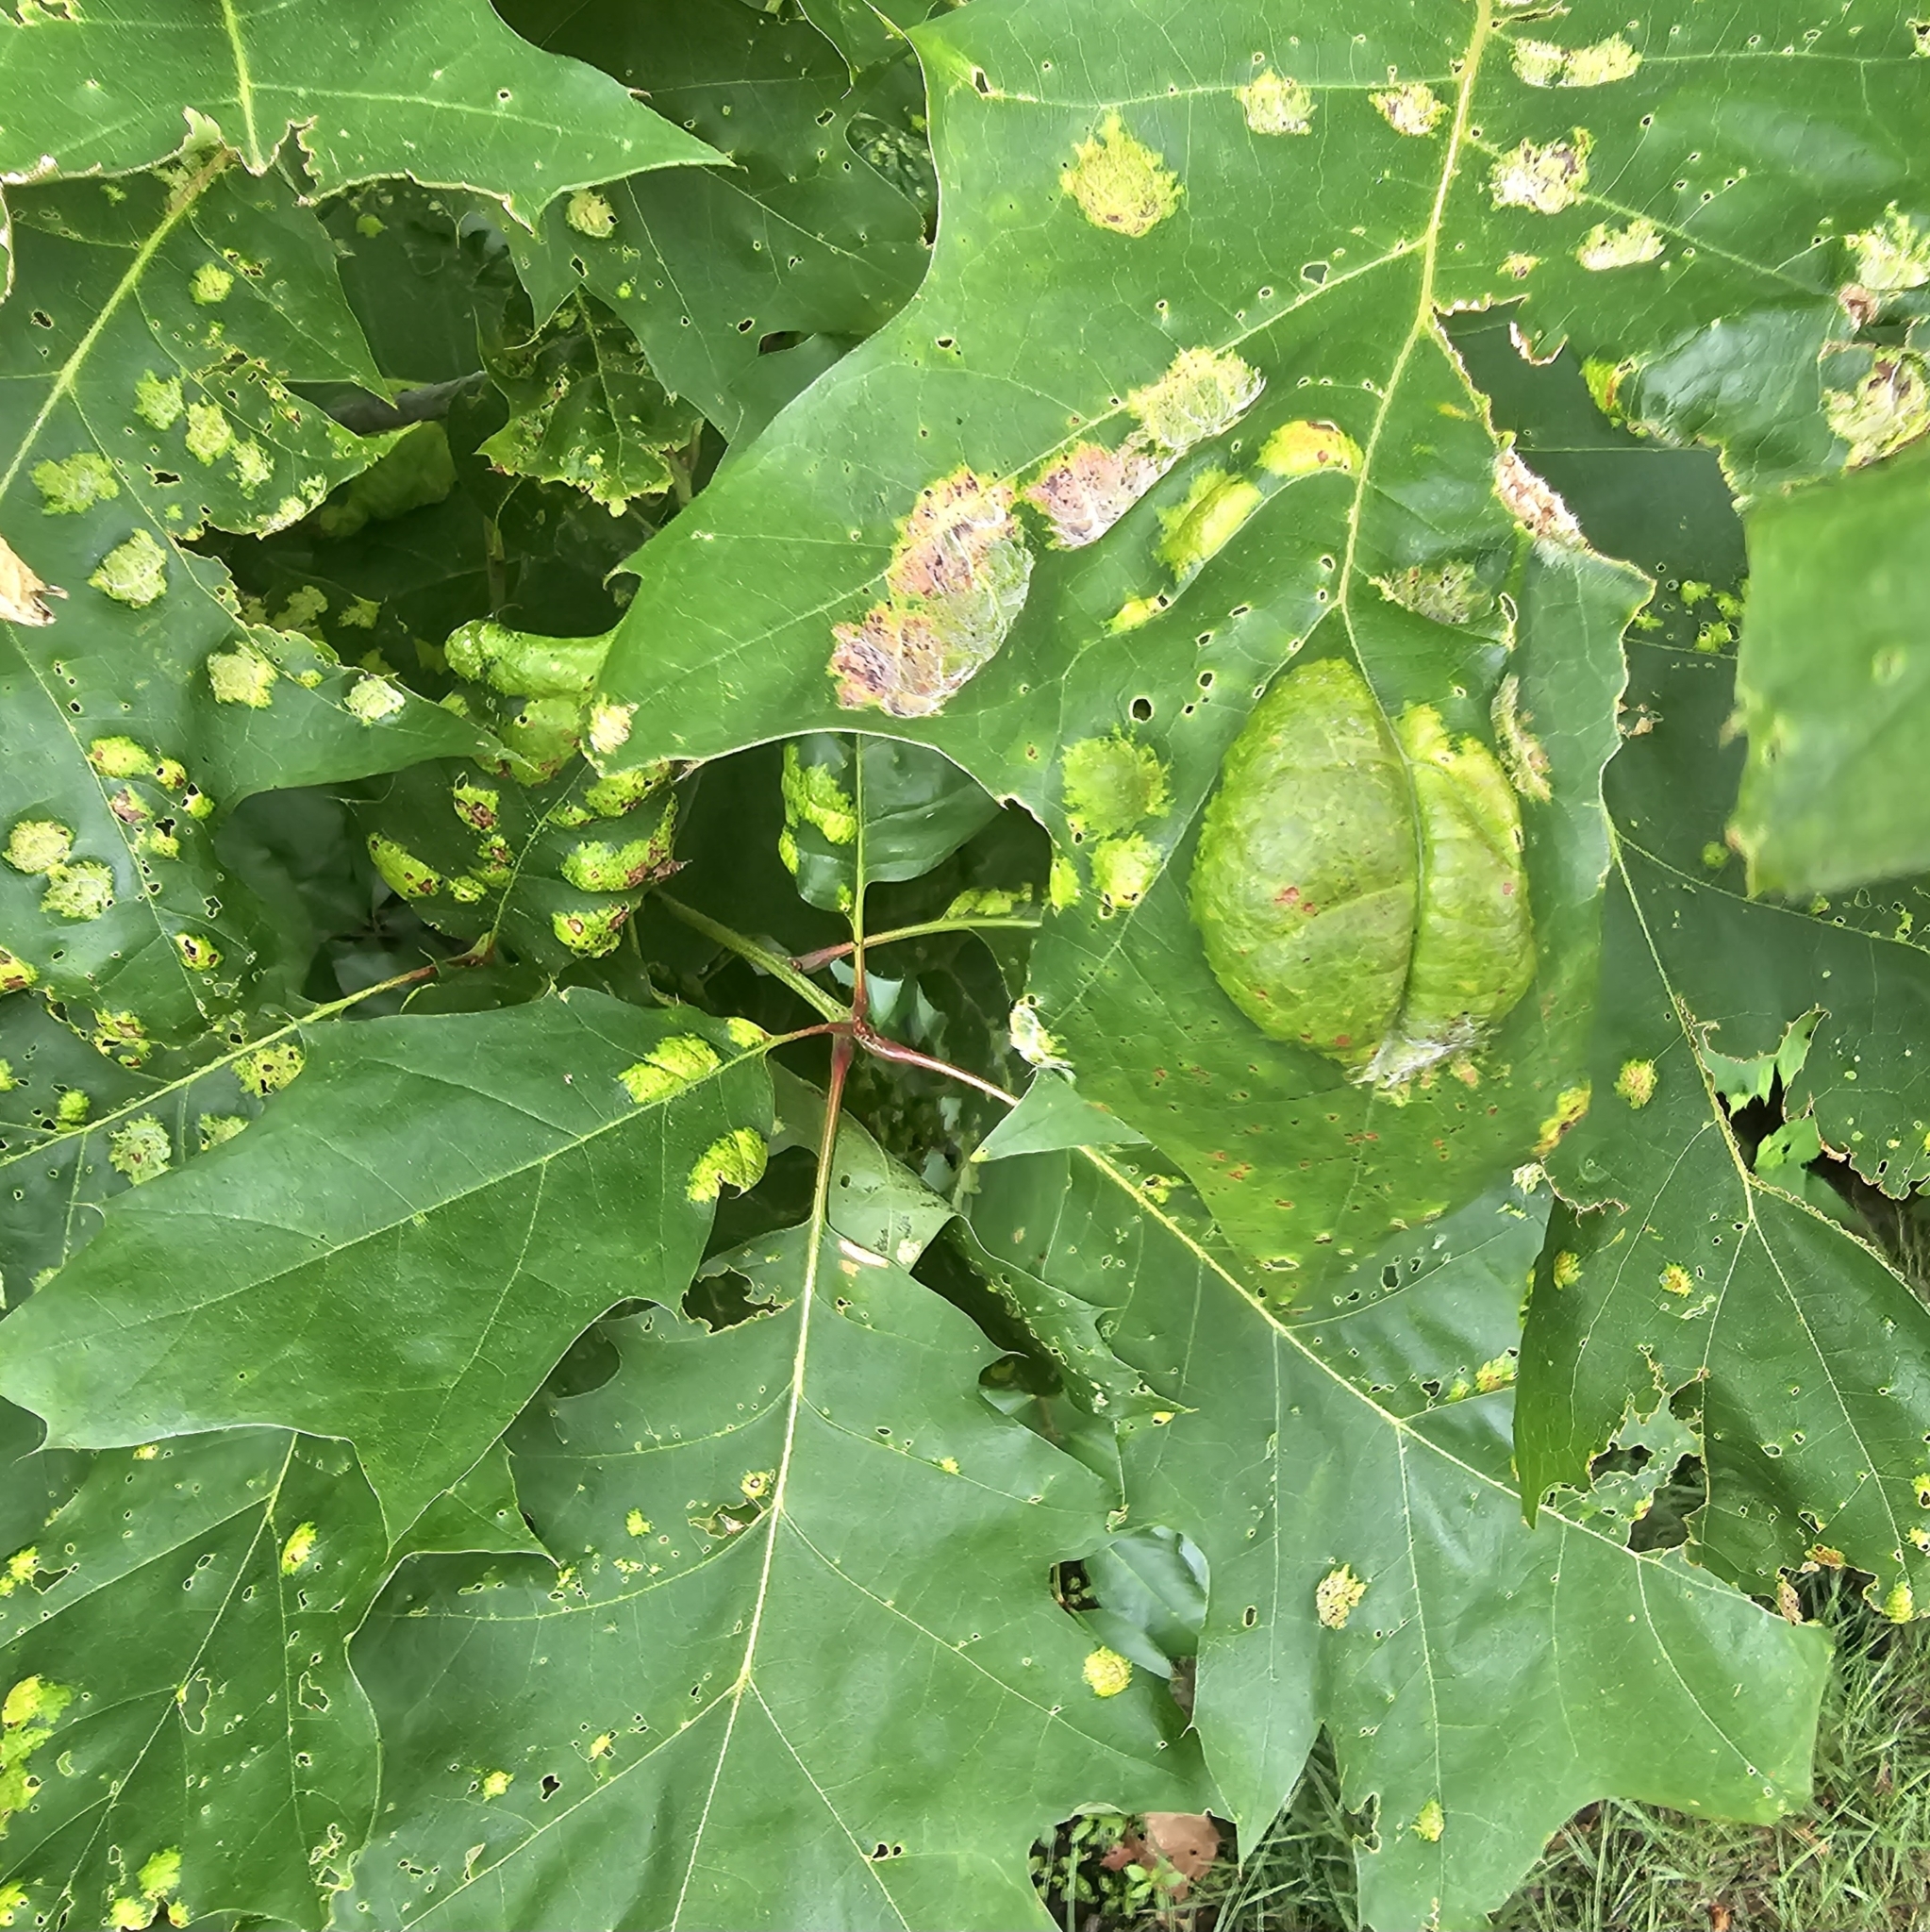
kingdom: Fungi
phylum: Ascomycota
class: Taphrinomycetes
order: Taphrinales
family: Taphrinaceae
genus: Taphrina
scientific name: Taphrina caerulescens
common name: Oak leaf blister
